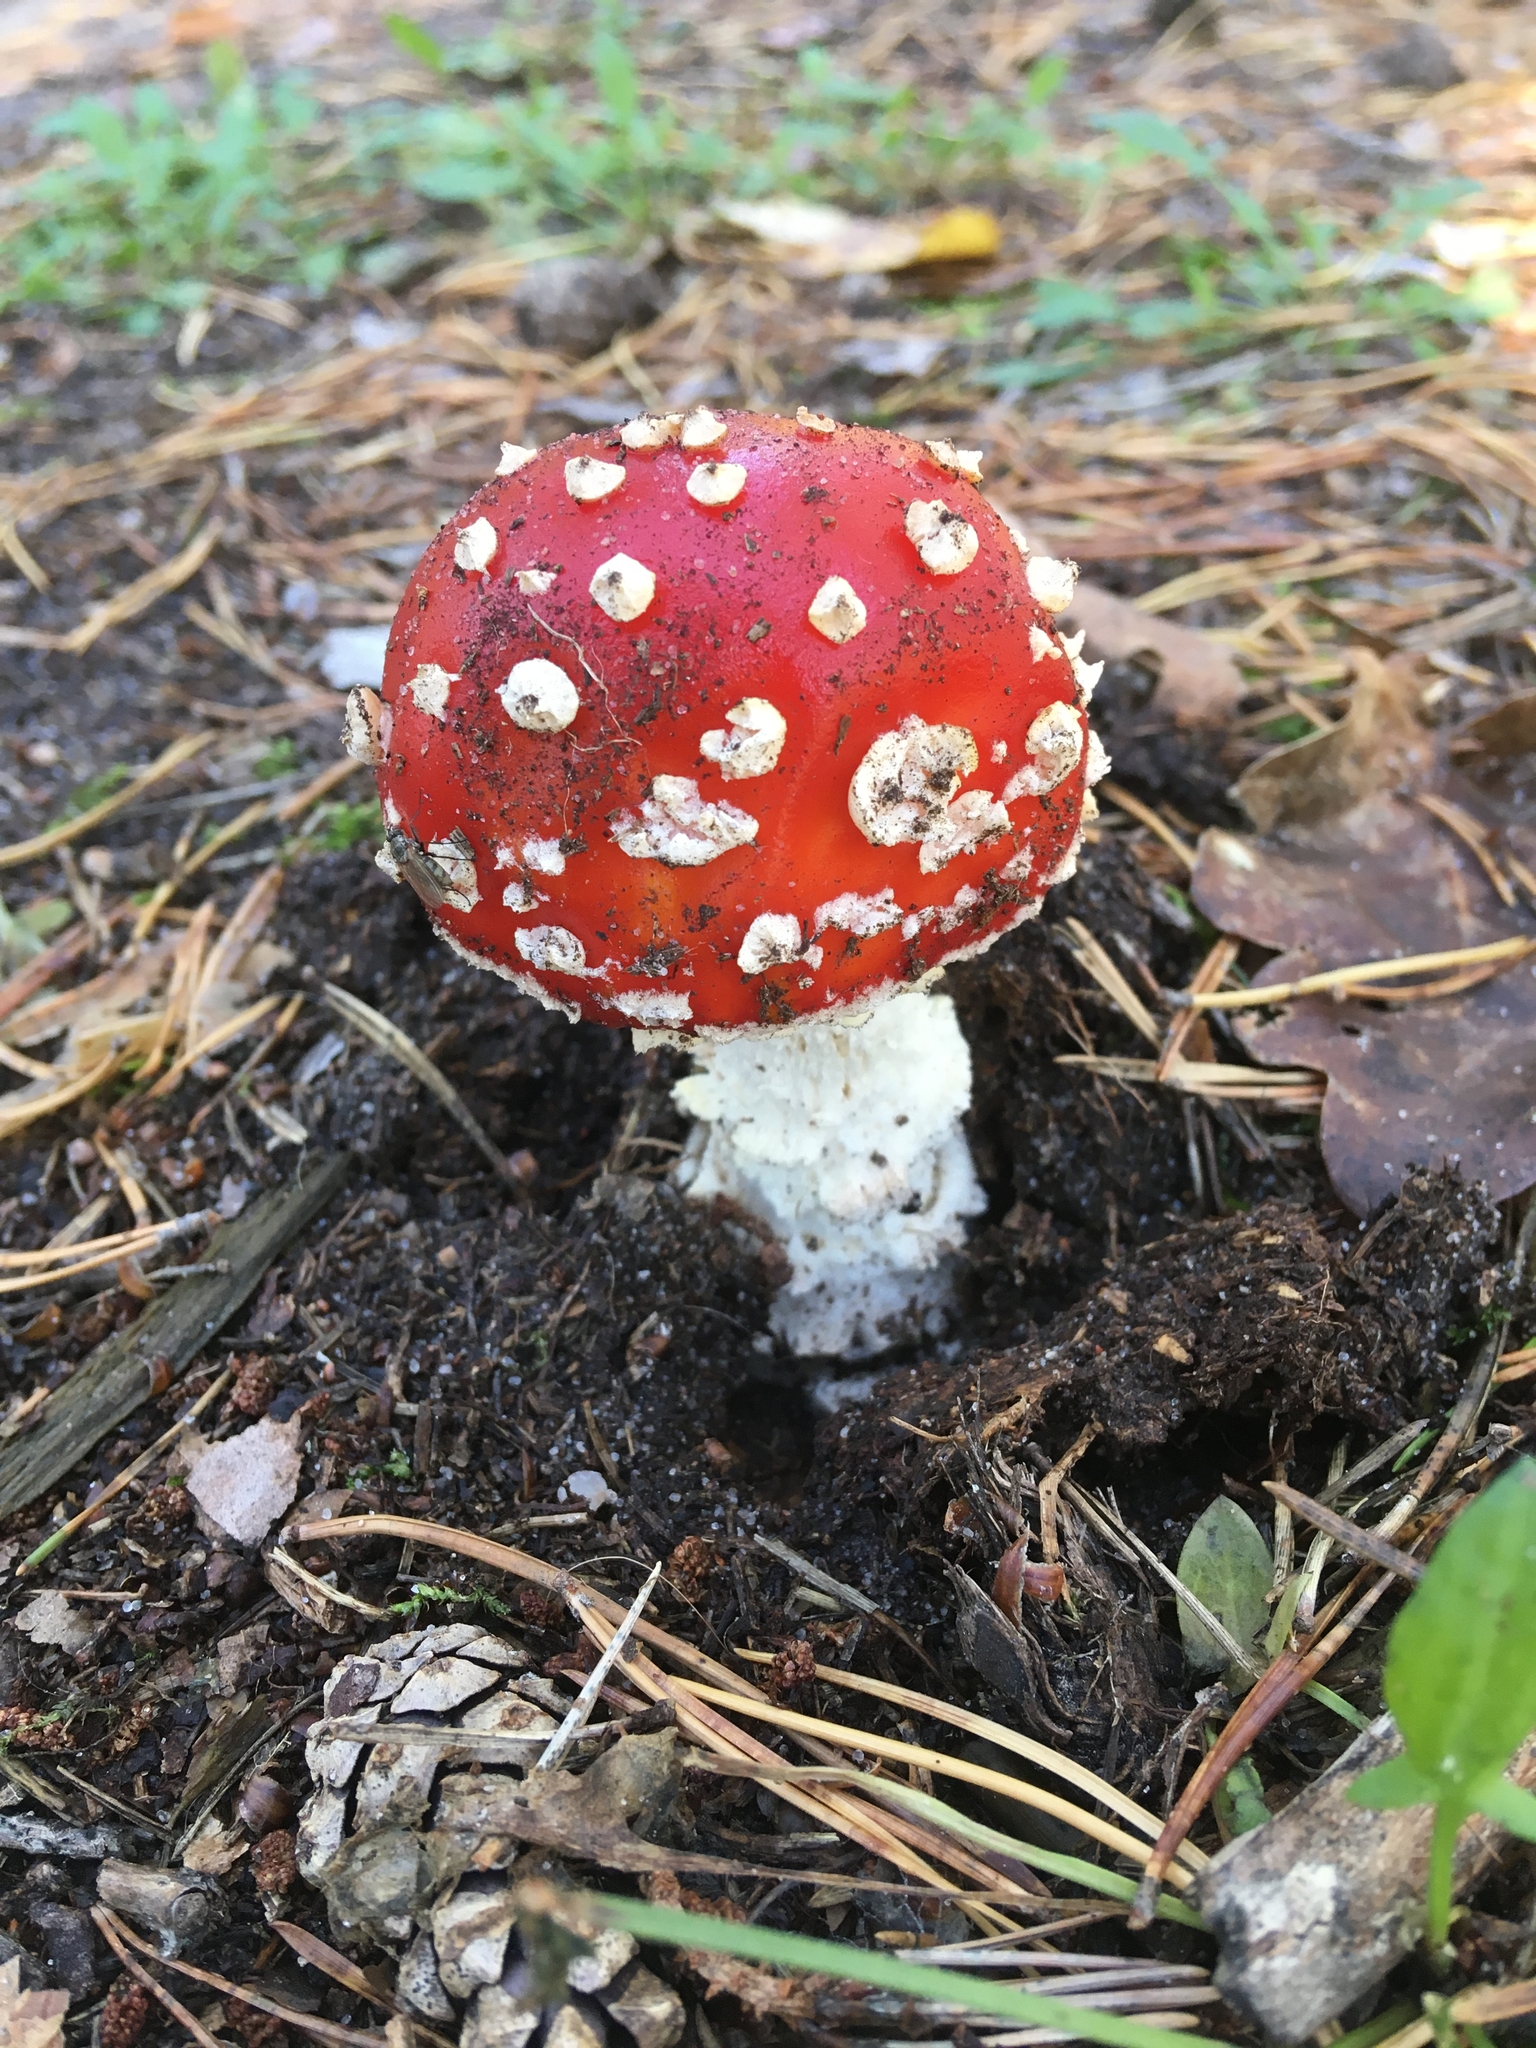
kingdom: Fungi
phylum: Basidiomycota
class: Agaricomycetes
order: Agaricales
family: Amanitaceae
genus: Amanita
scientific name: Amanita muscaria
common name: Fly agaric
